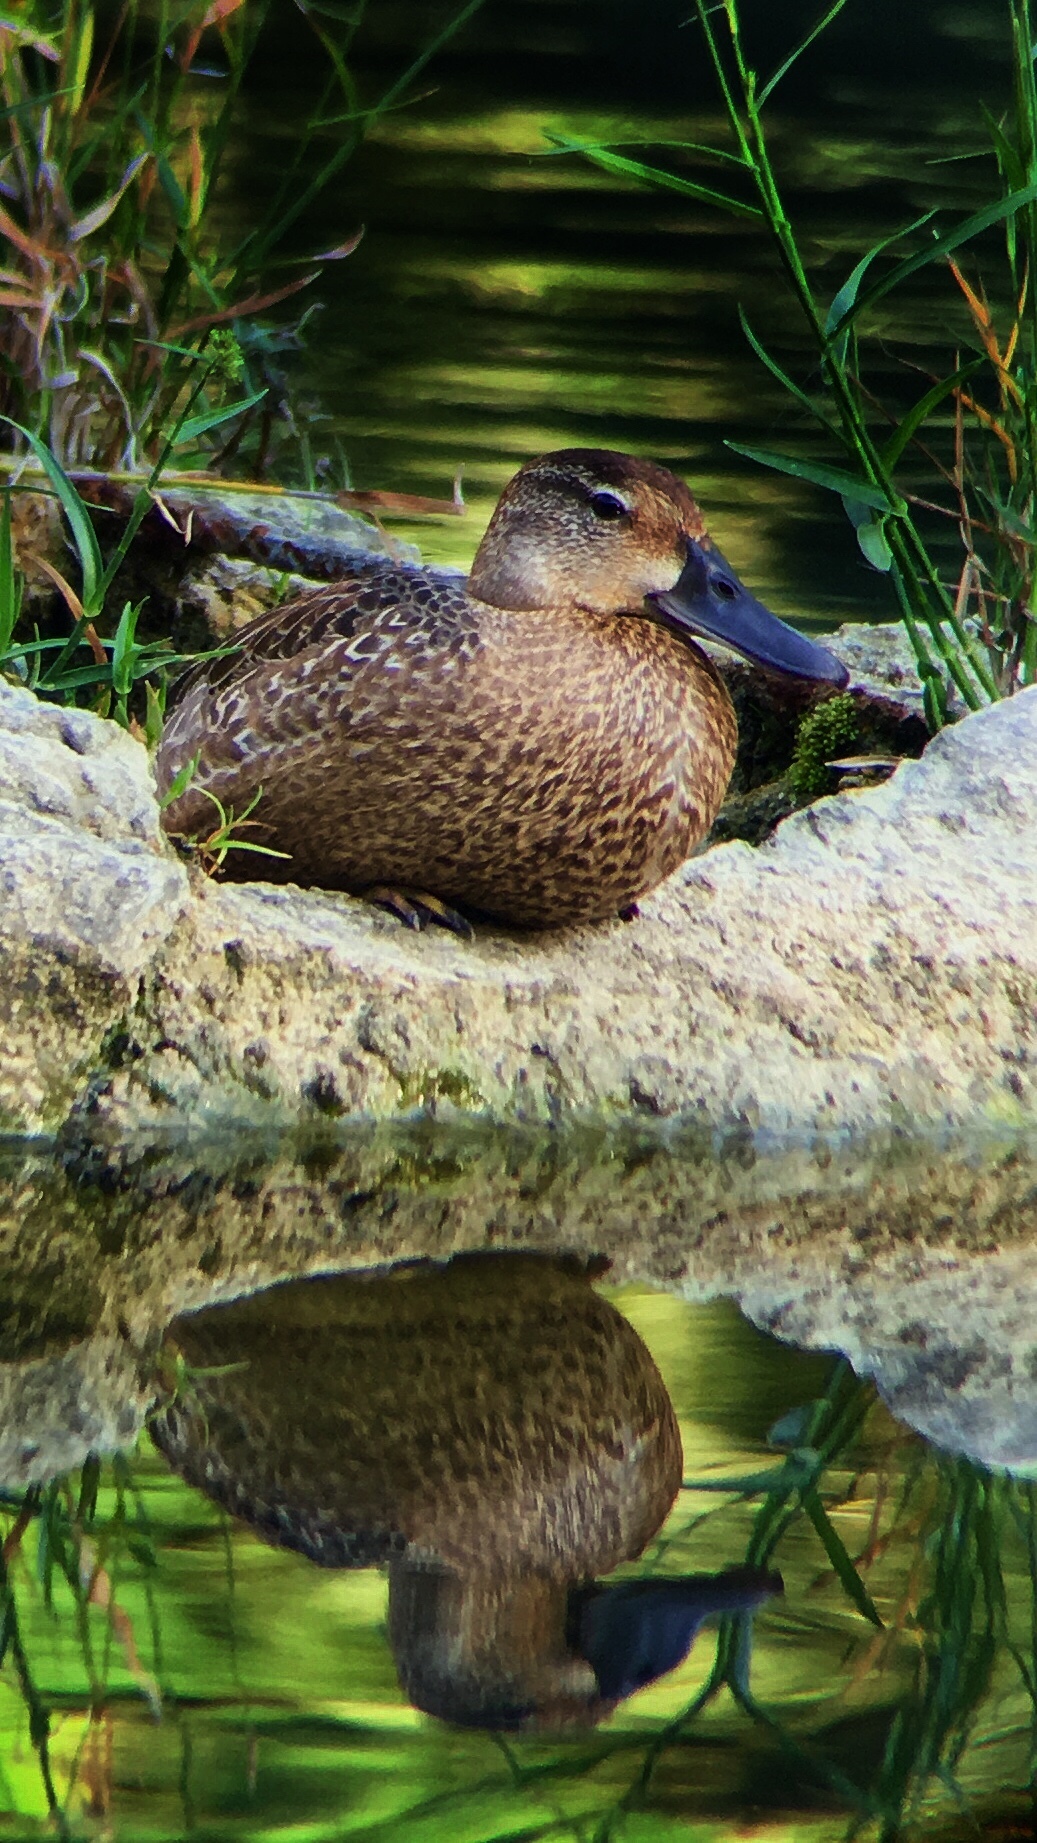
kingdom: Animalia
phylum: Chordata
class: Aves
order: Anseriformes
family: Anatidae
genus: Spatula
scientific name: Spatula discors
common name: Blue-winged teal
